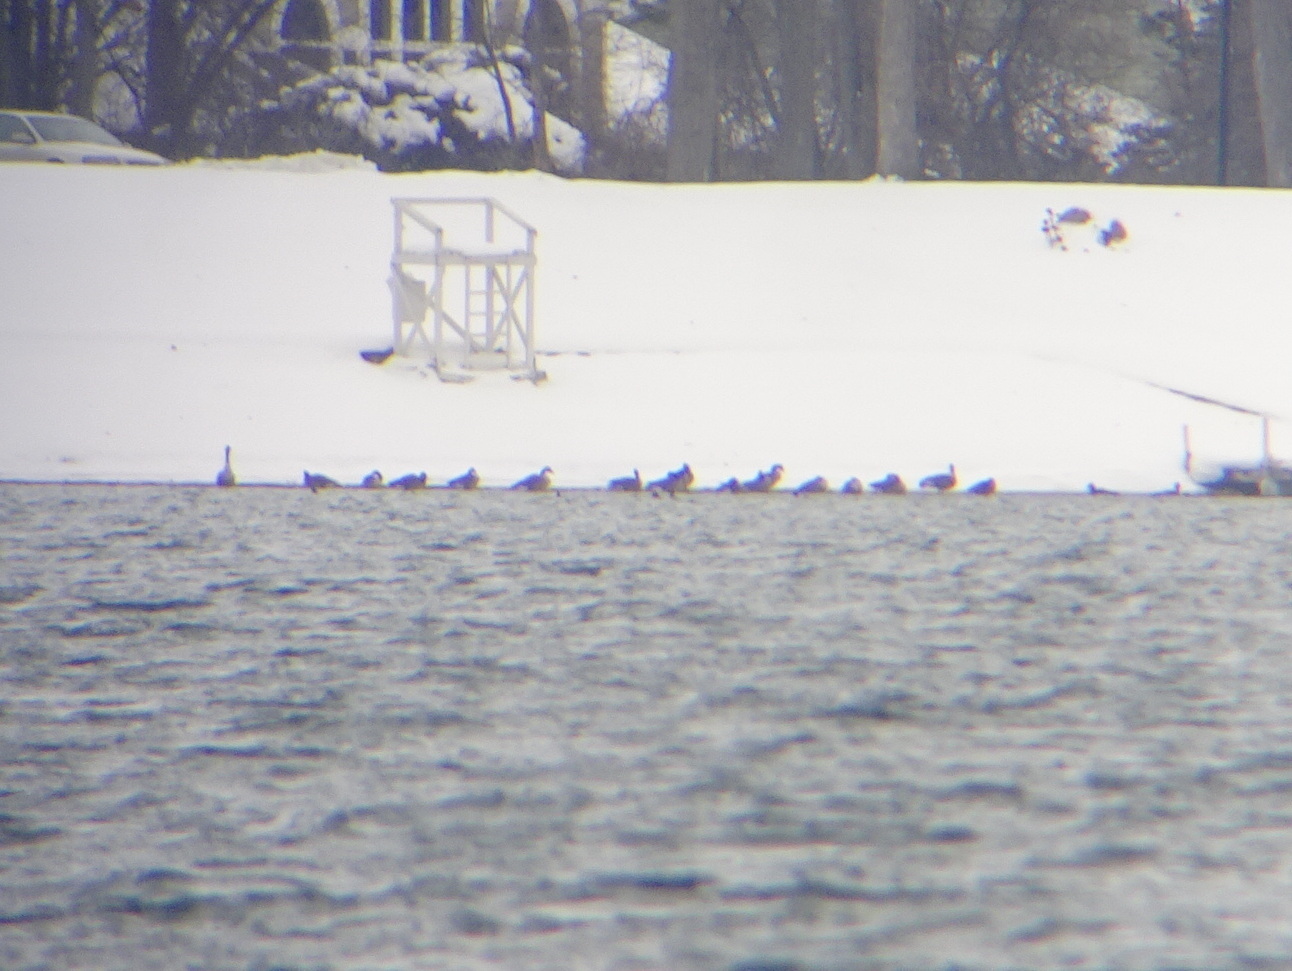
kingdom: Animalia
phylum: Chordata
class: Aves
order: Anseriformes
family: Anatidae
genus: Branta
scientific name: Branta canadensis
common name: Canada goose
